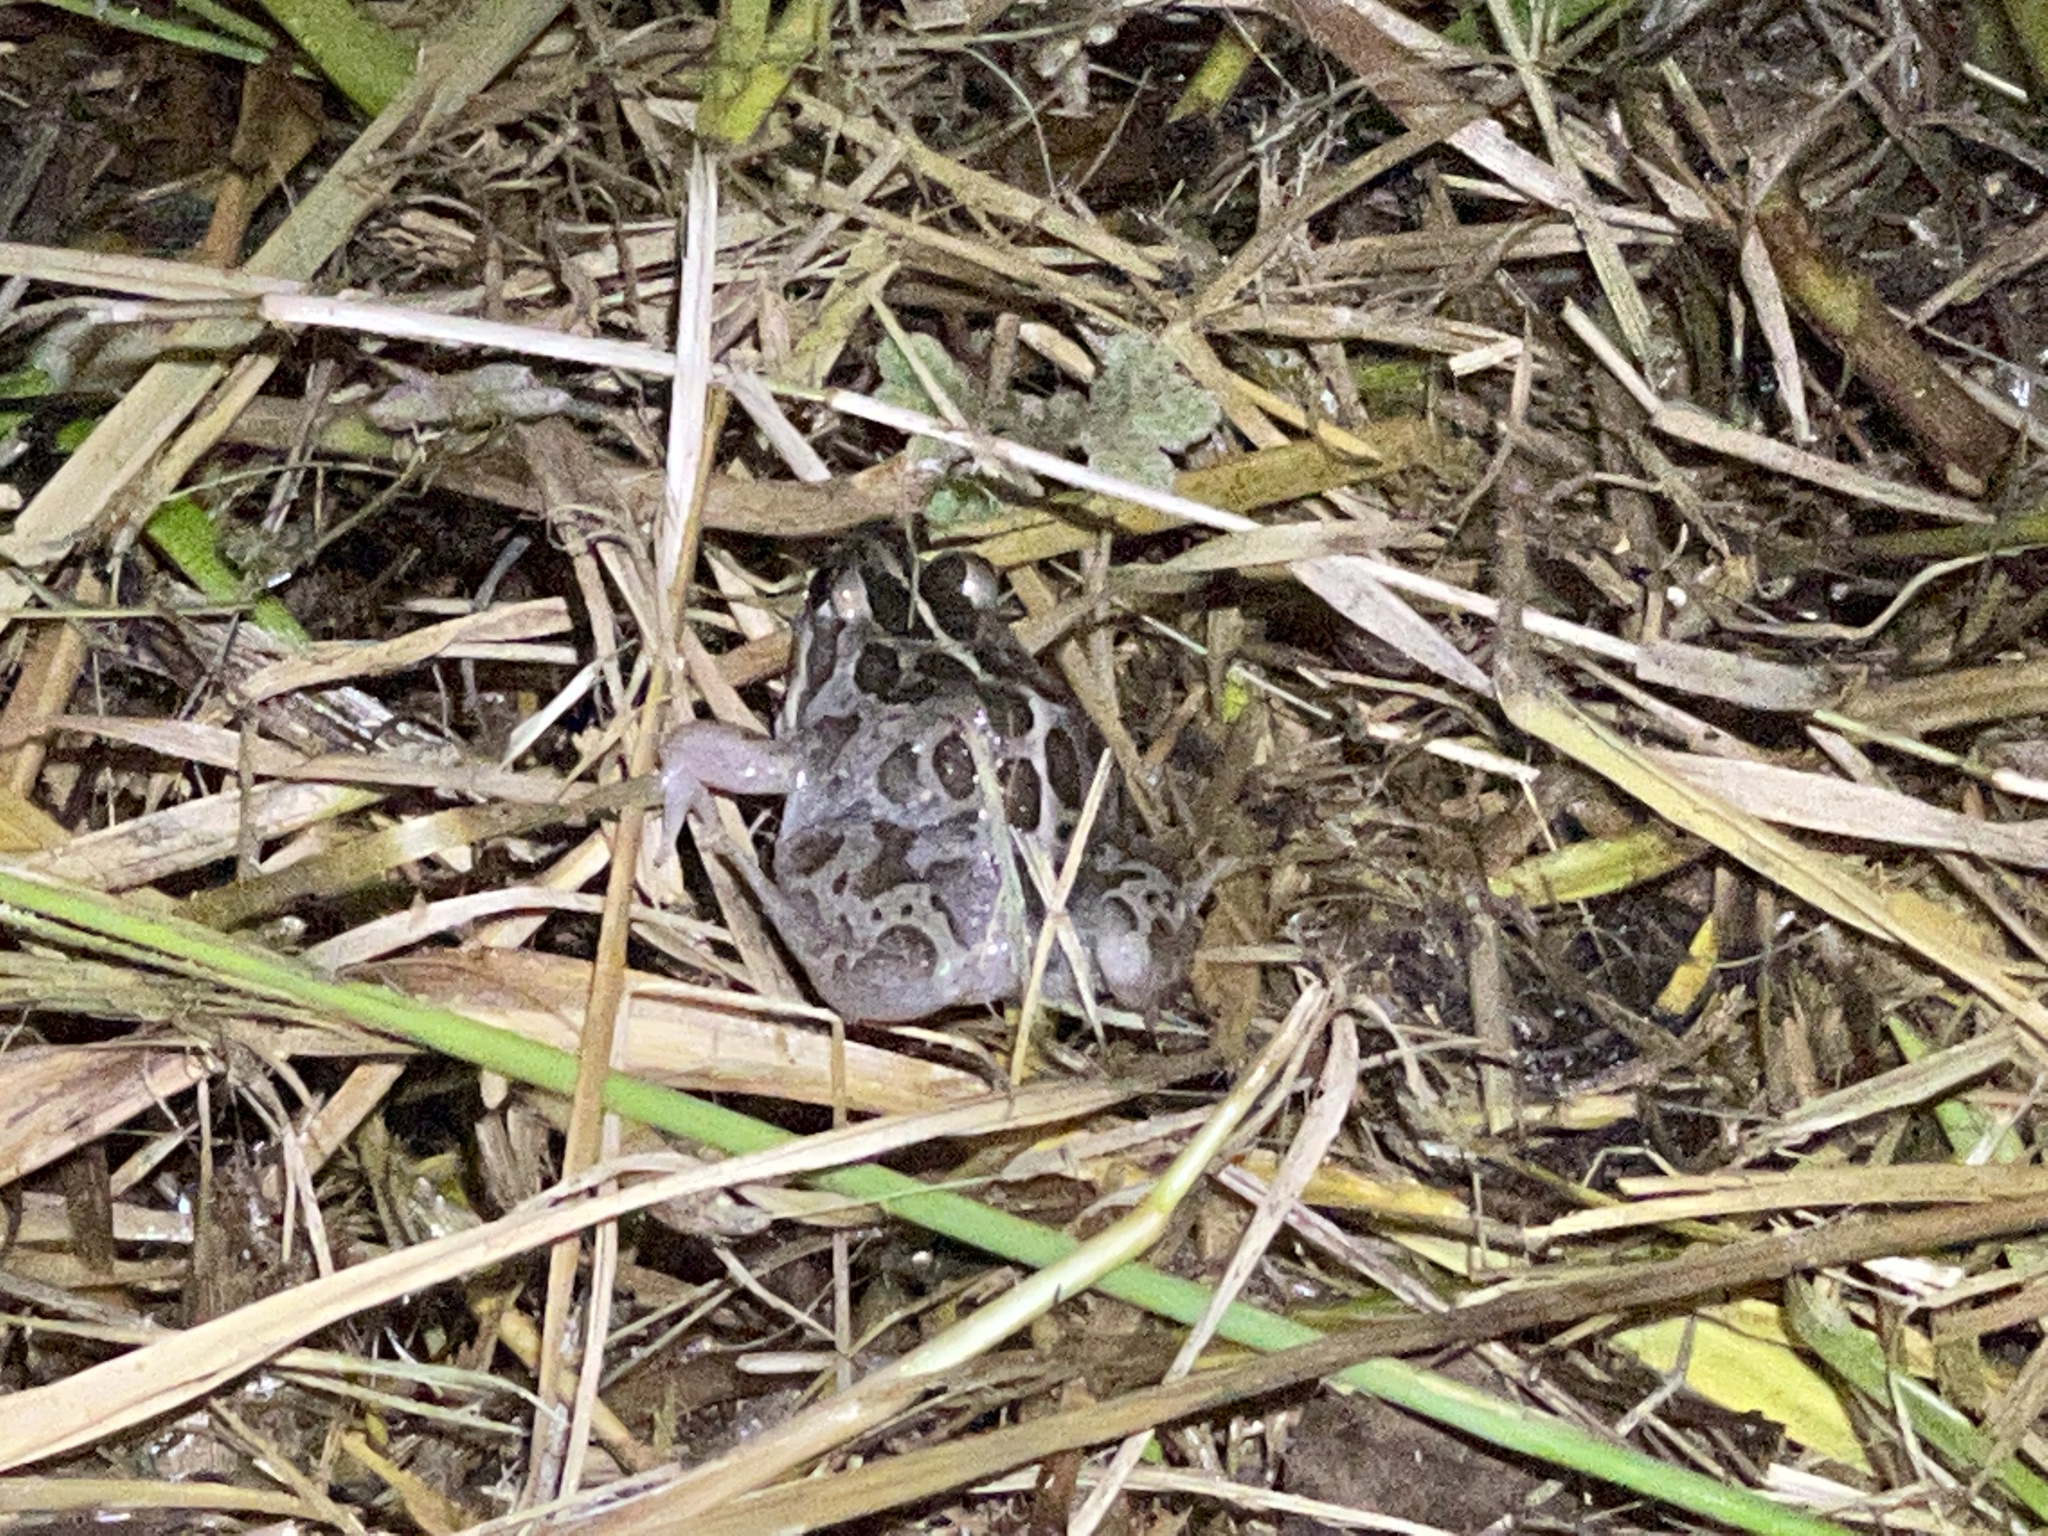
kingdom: Animalia
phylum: Chordata
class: Amphibia
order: Anura
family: Limnodynastidae
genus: Limnodynastes
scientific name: Limnodynastes tasmaniensis
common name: Spotted marsh frog
